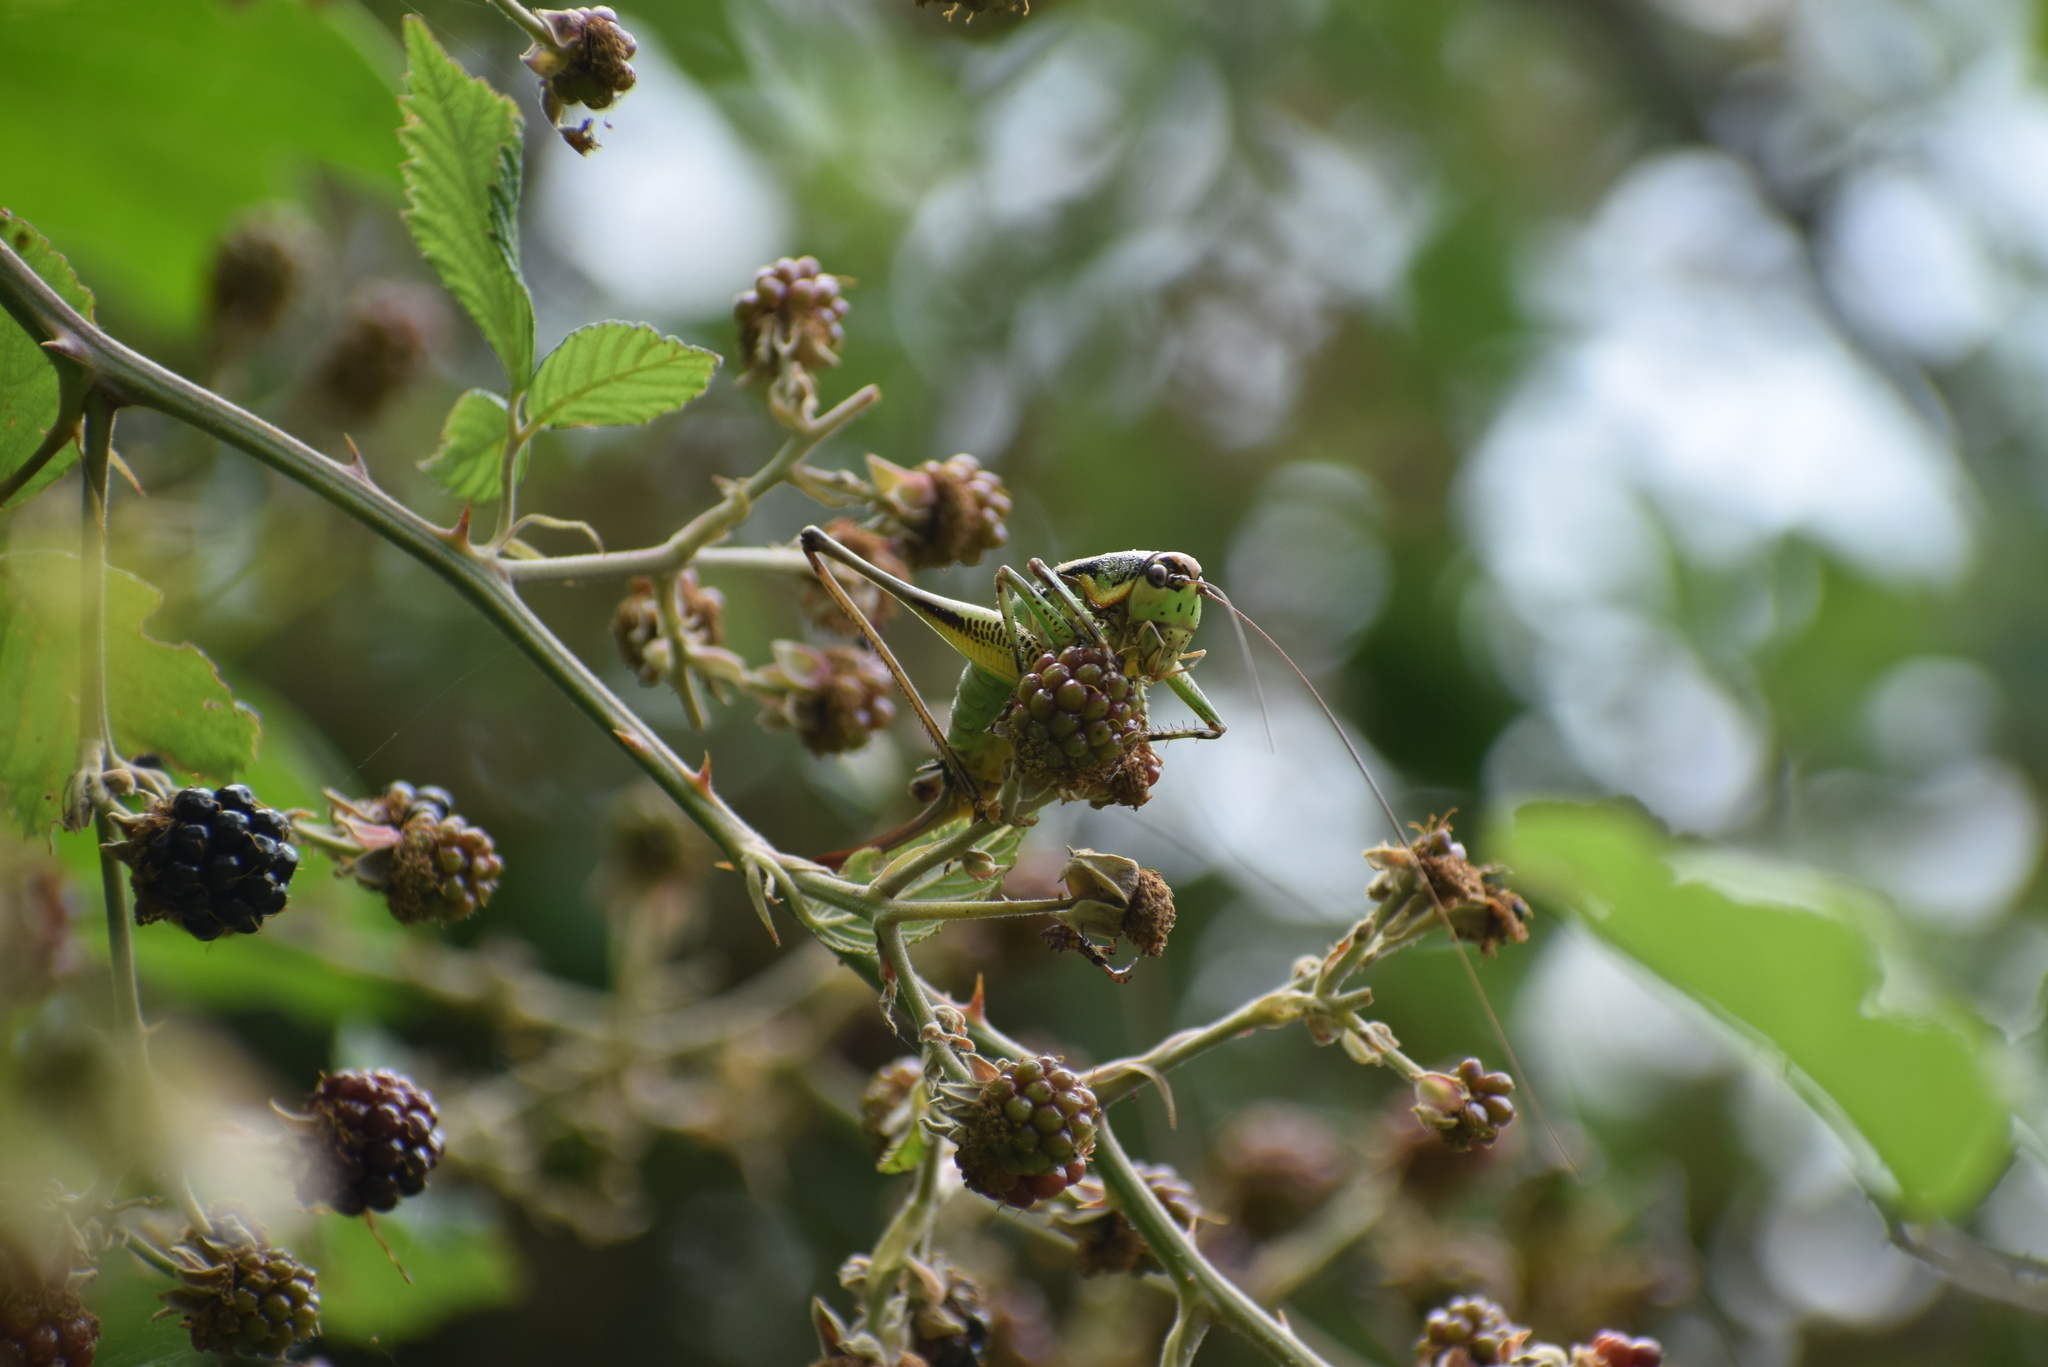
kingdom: Animalia
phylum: Arthropoda
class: Insecta
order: Orthoptera
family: Tettigoniidae
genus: Eupholidoptera
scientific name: Eupholidoptera schmidti
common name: Schmidt's marbled bush-cricket
